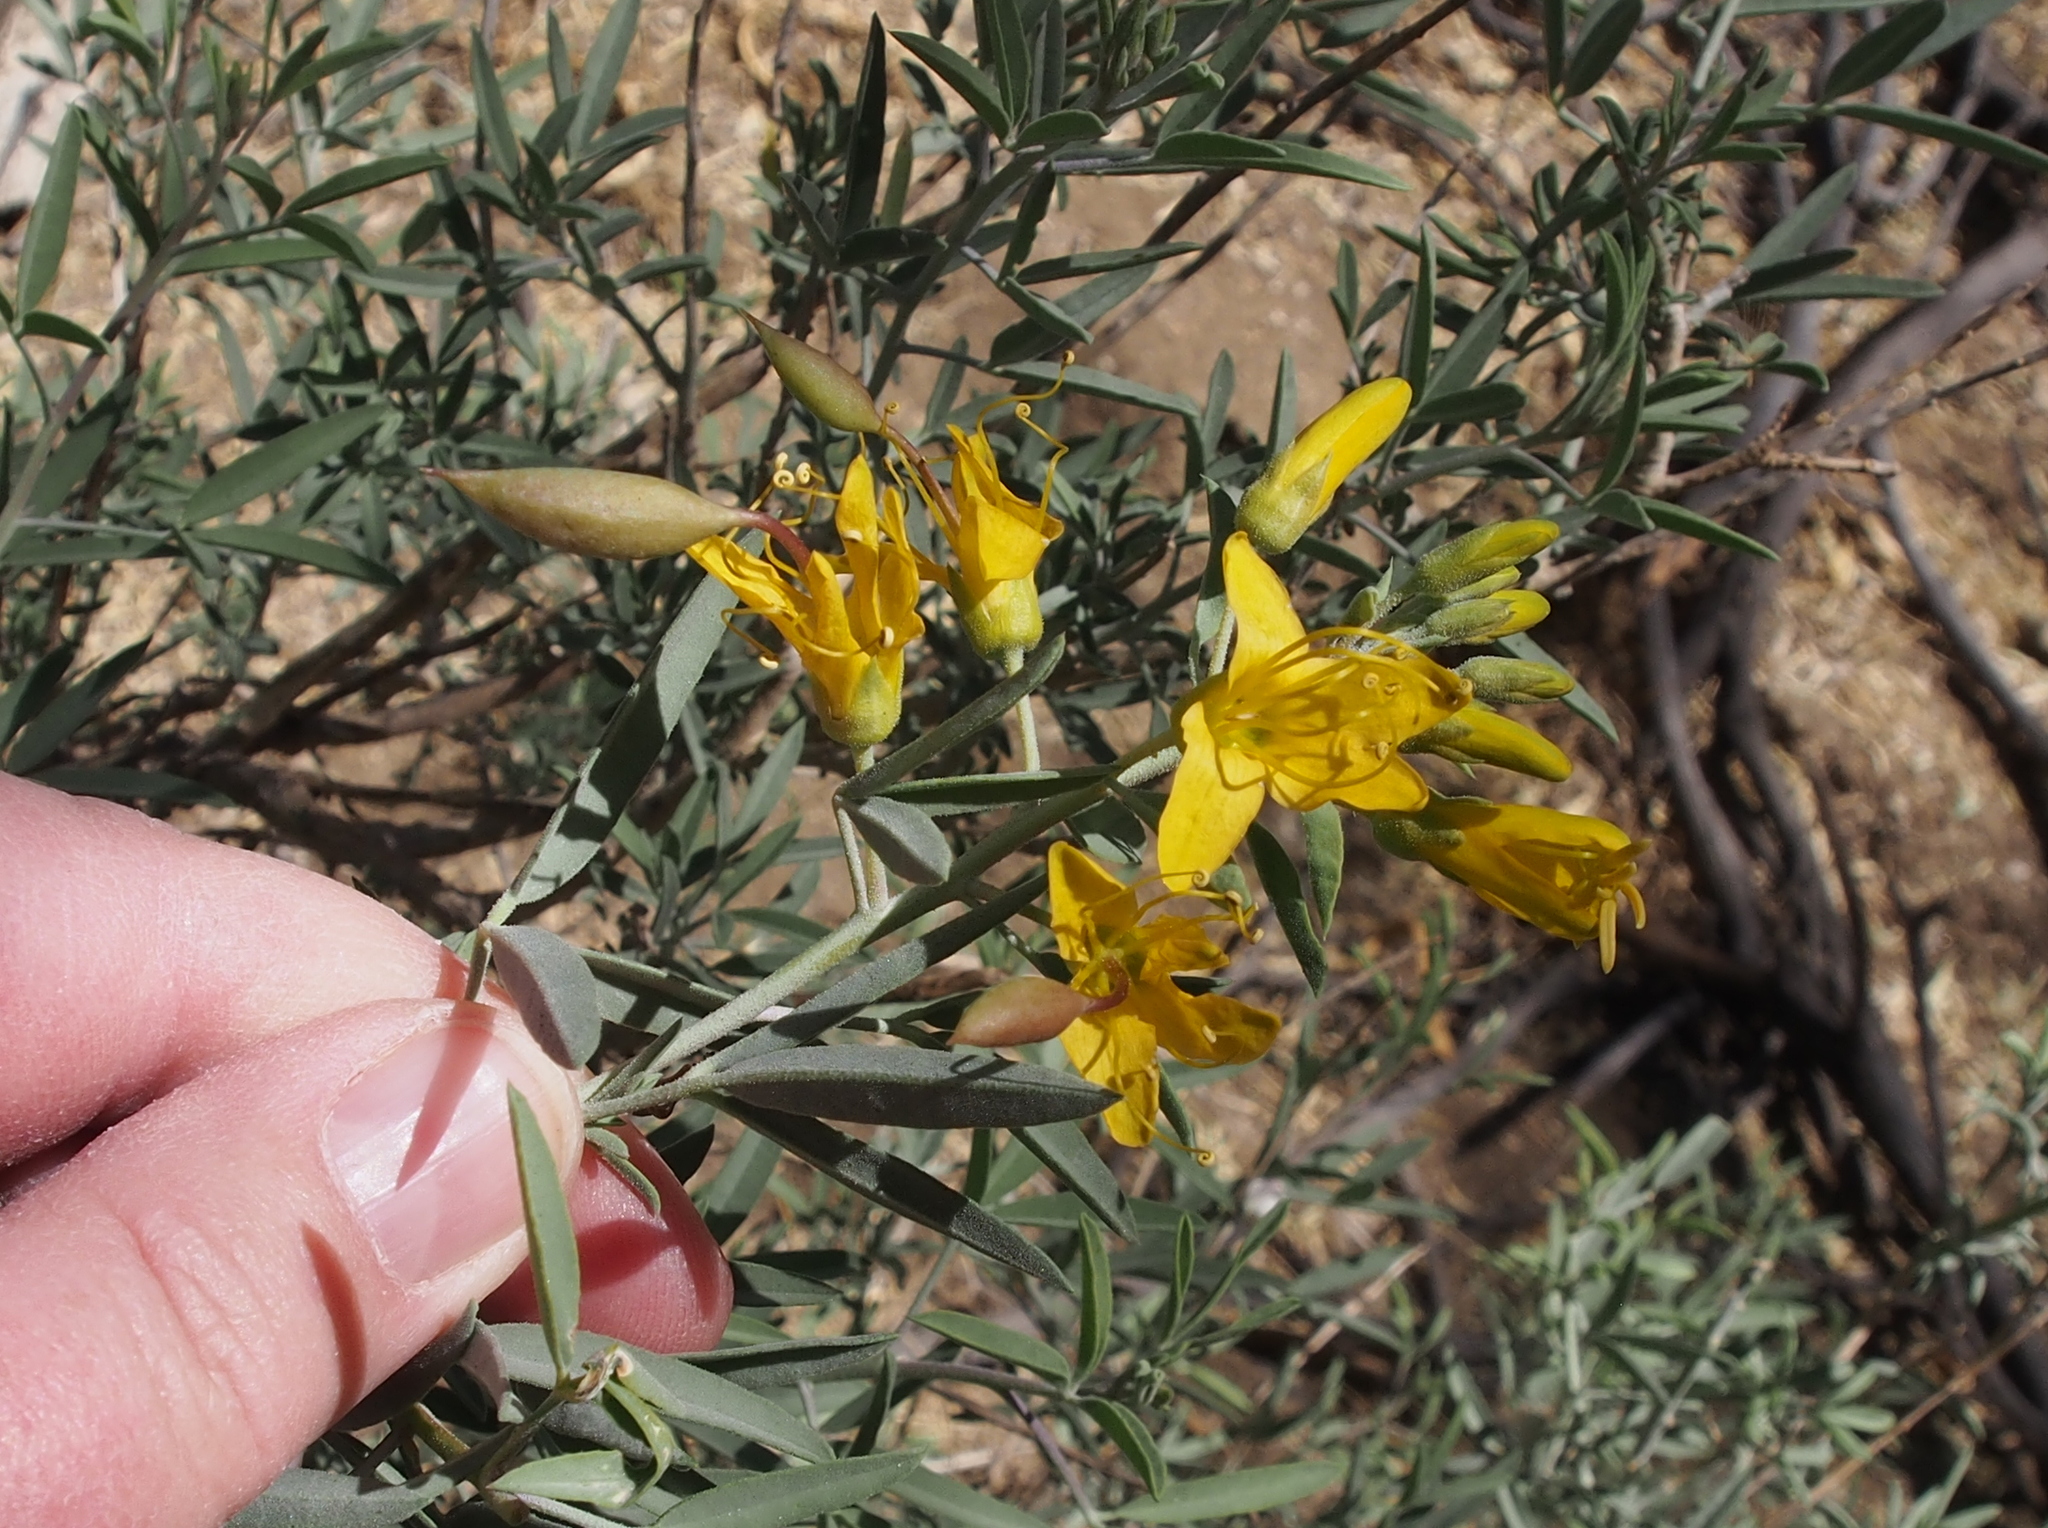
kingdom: Plantae
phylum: Tracheophyta
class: Magnoliopsida
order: Brassicales
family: Cleomaceae
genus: Cleomella
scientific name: Cleomella arborea
